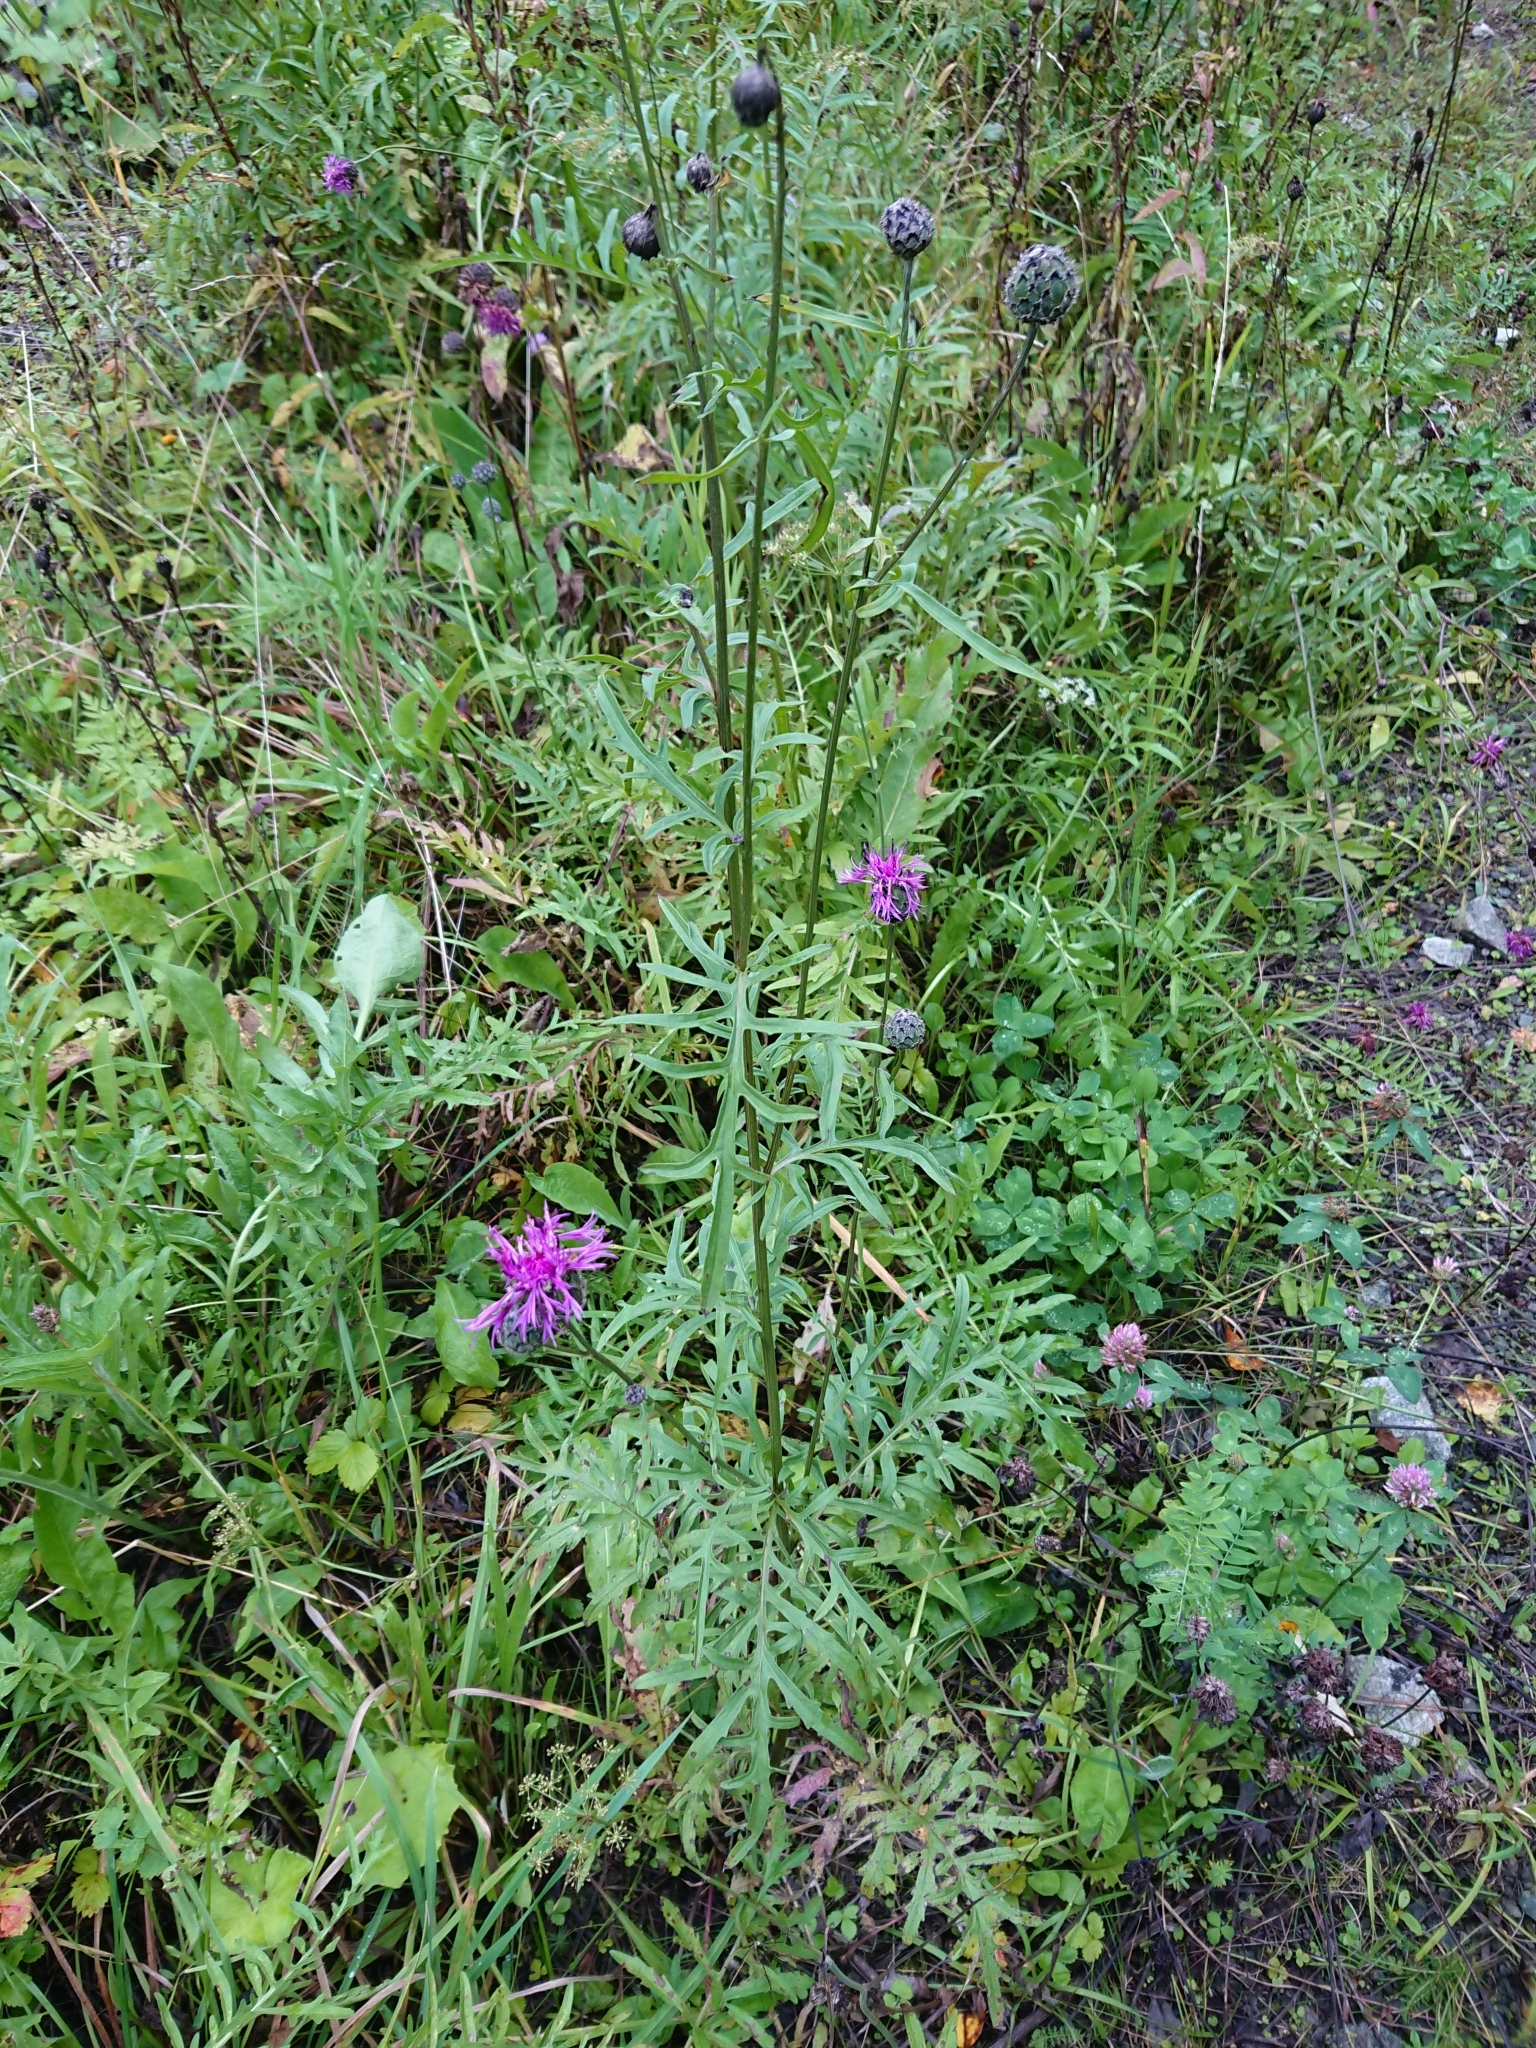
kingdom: Plantae
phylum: Tracheophyta
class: Magnoliopsida
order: Asterales
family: Asteraceae
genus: Centaurea
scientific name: Centaurea scabiosa
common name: Greater knapweed
